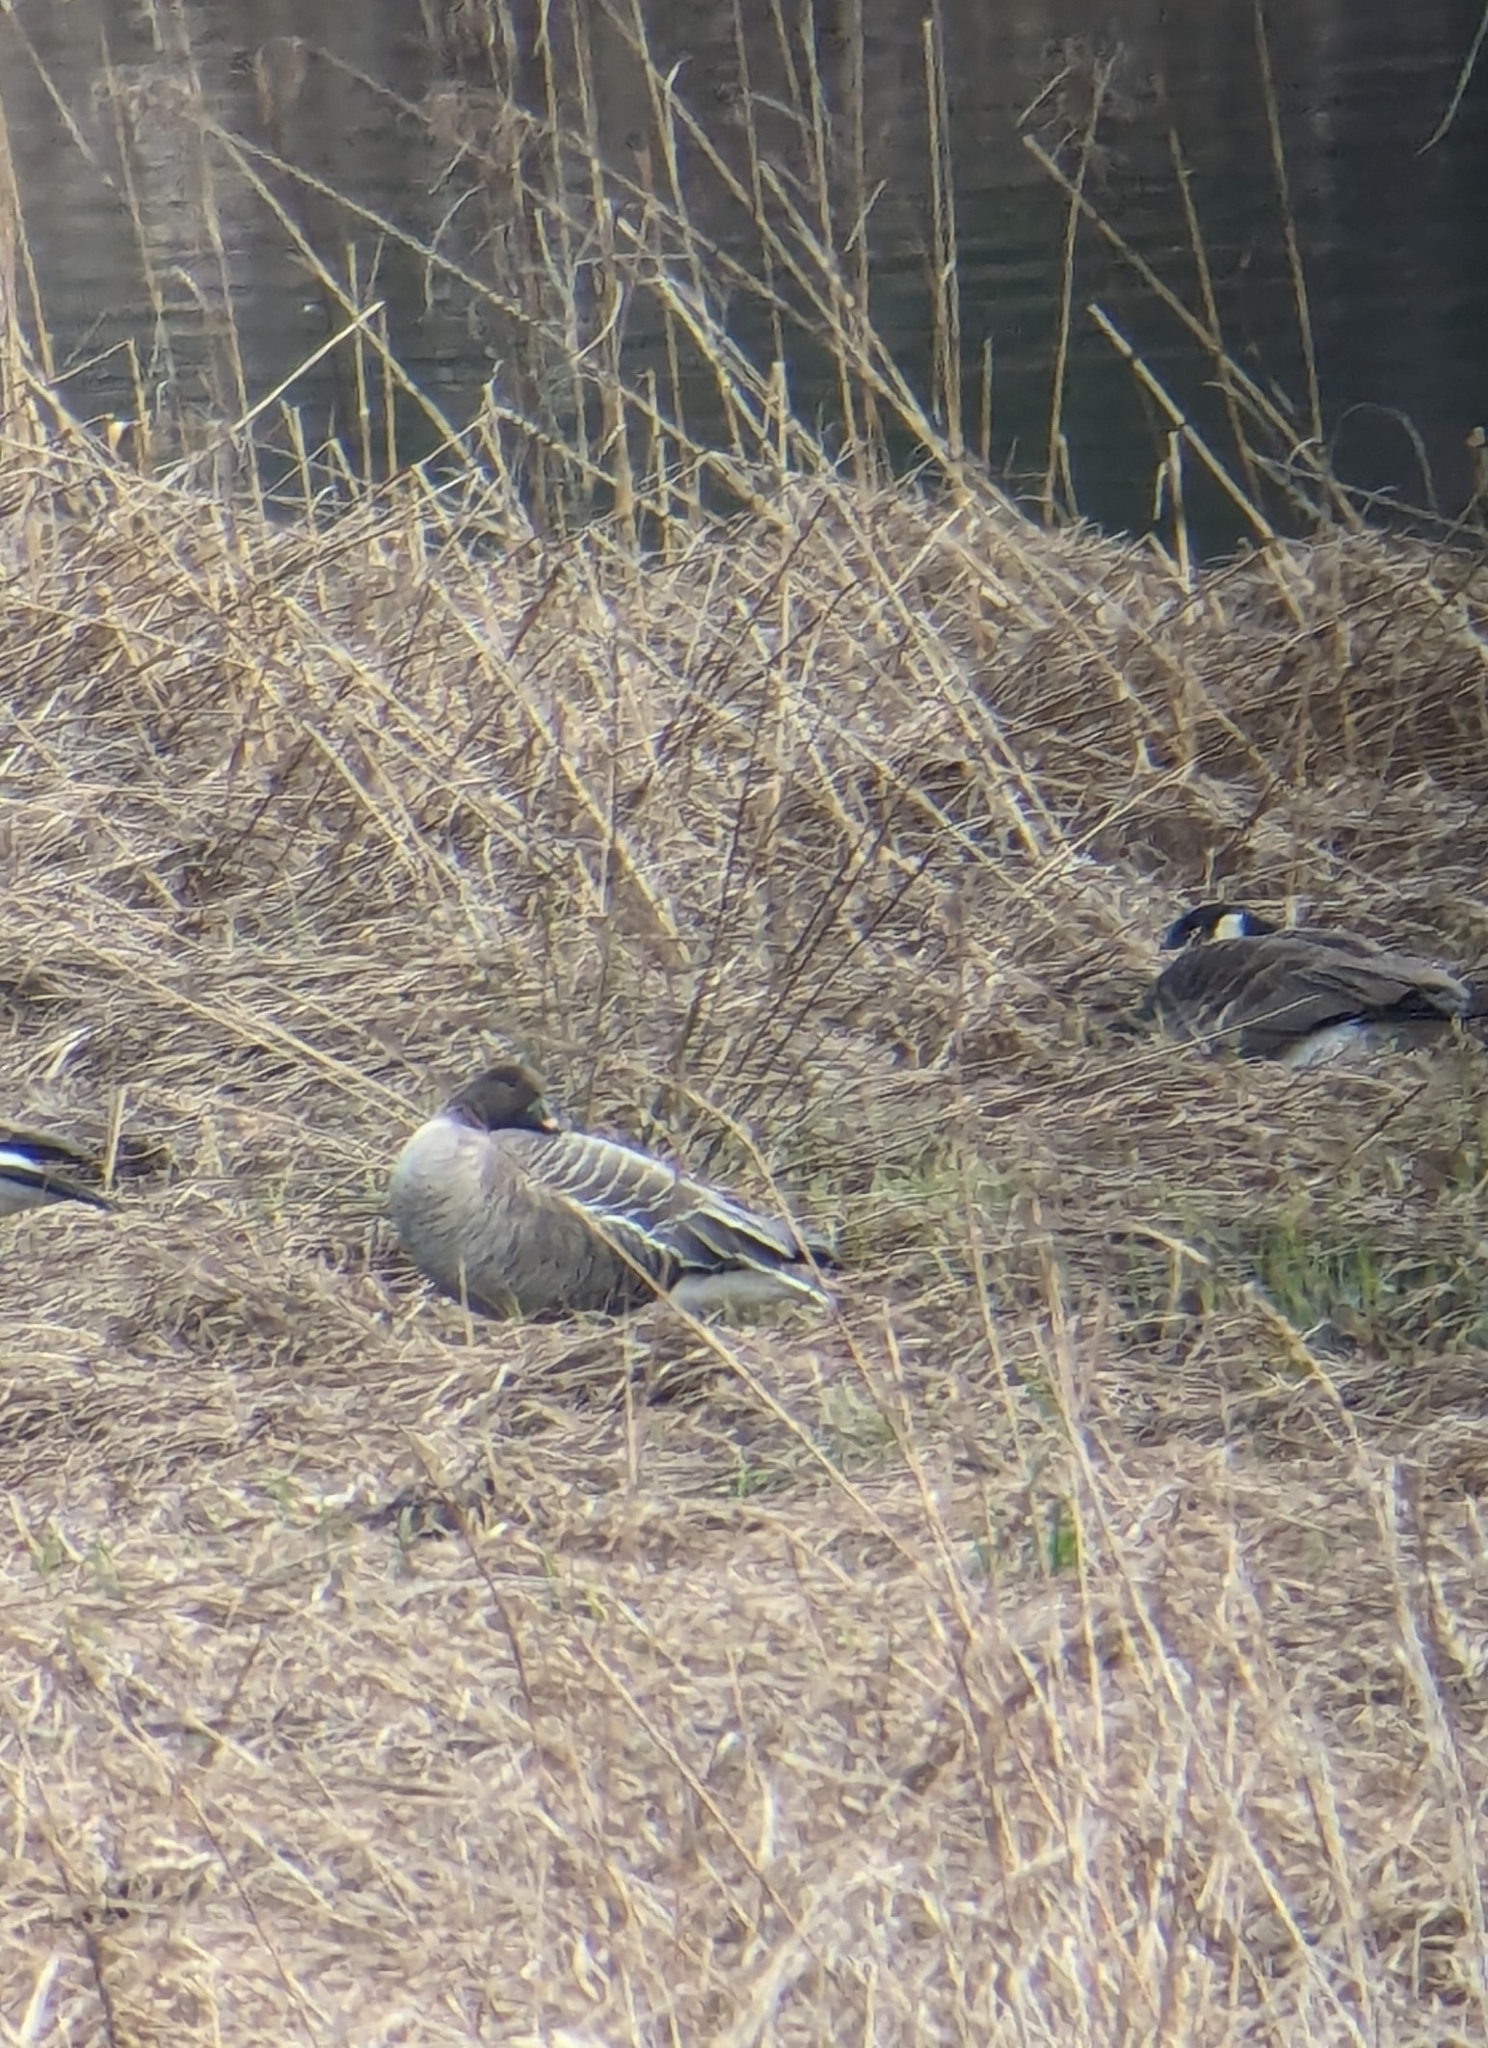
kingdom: Animalia
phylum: Chordata
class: Aves
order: Anseriformes
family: Anatidae
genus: Anser
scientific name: Anser brachyrhynchus
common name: Pink-footed goose
